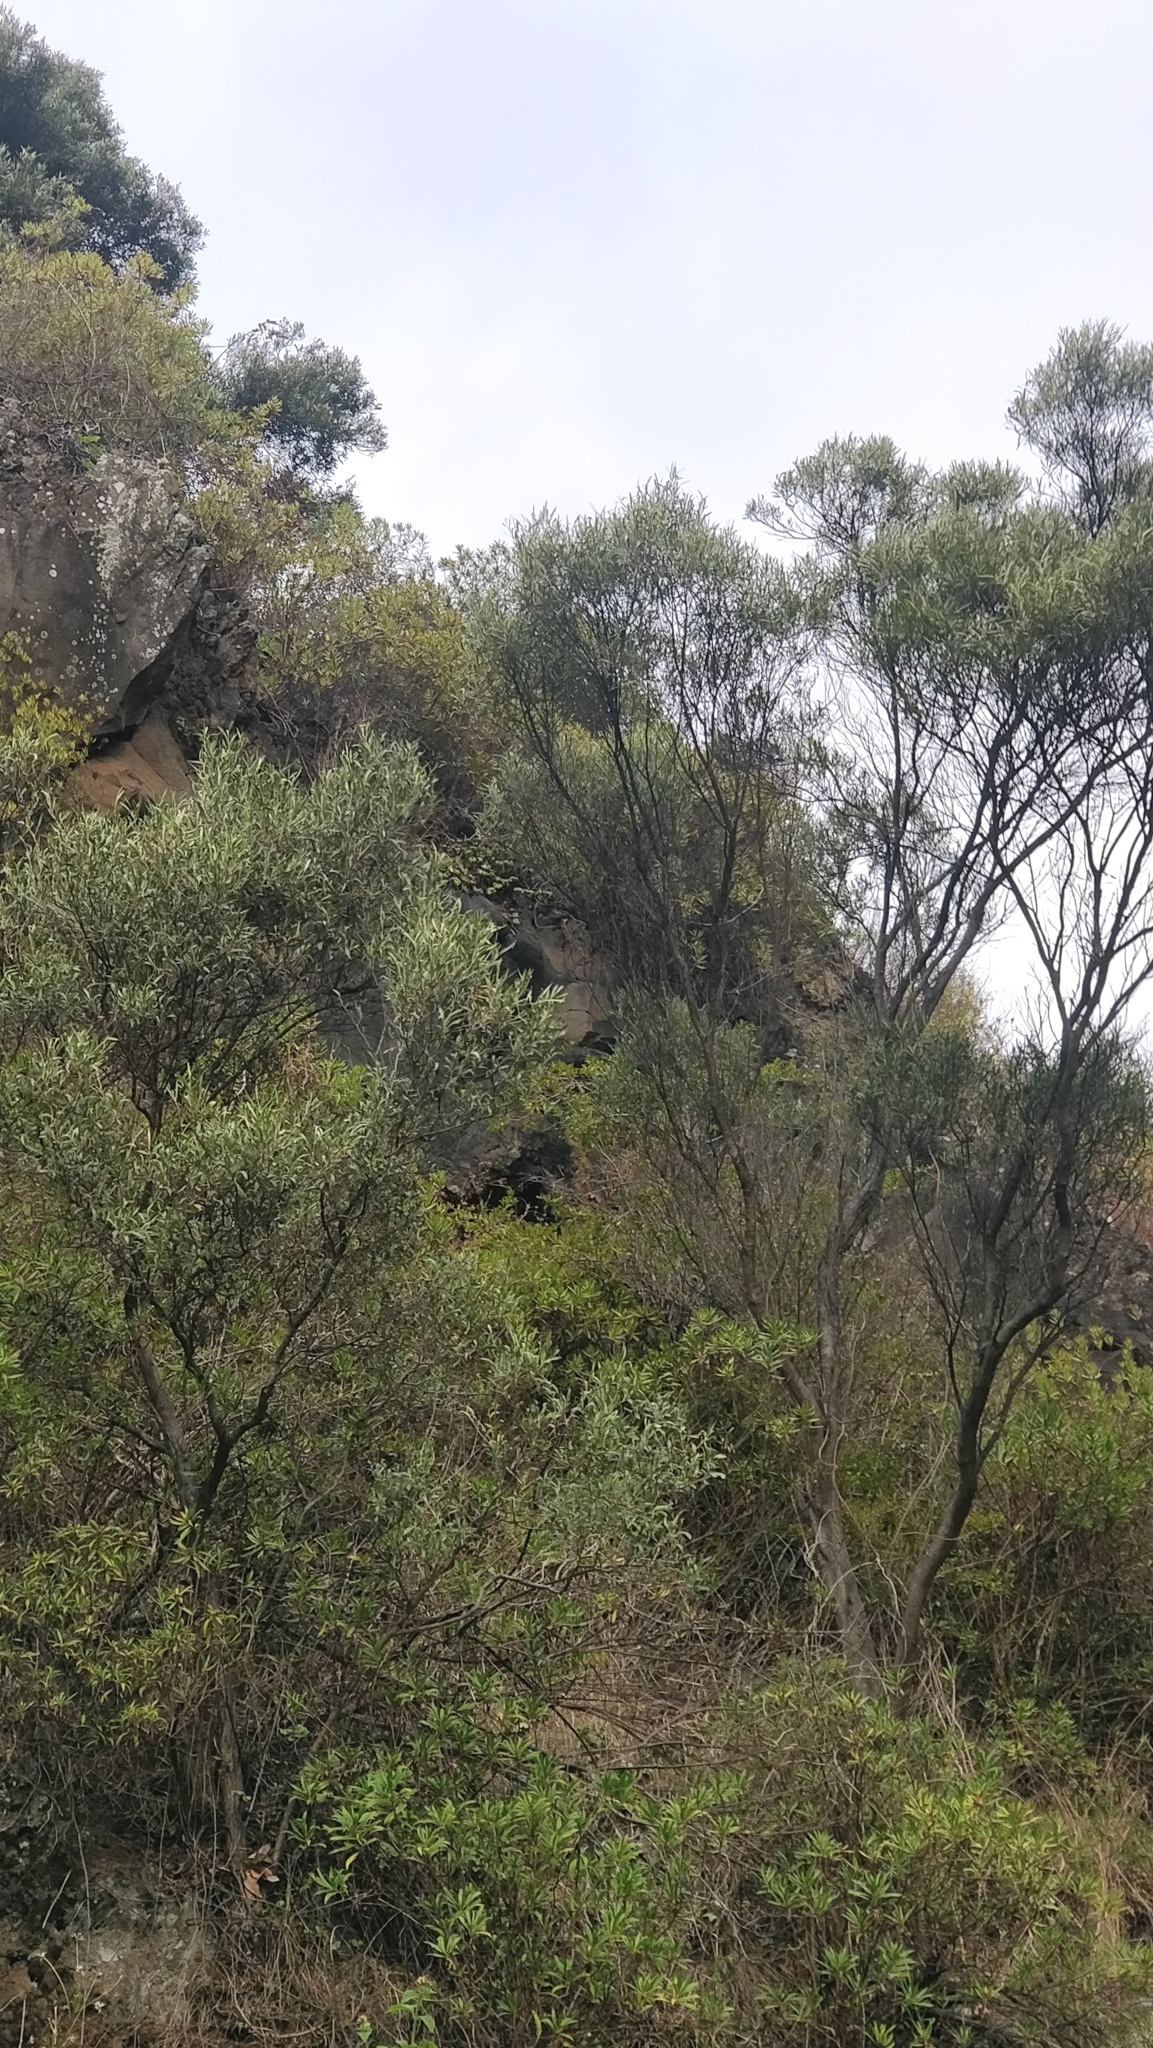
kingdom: Plantae
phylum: Tracheophyta
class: Magnoliopsida
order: Lamiales
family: Oleaceae
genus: Olea
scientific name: Olea europaea
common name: Olive
